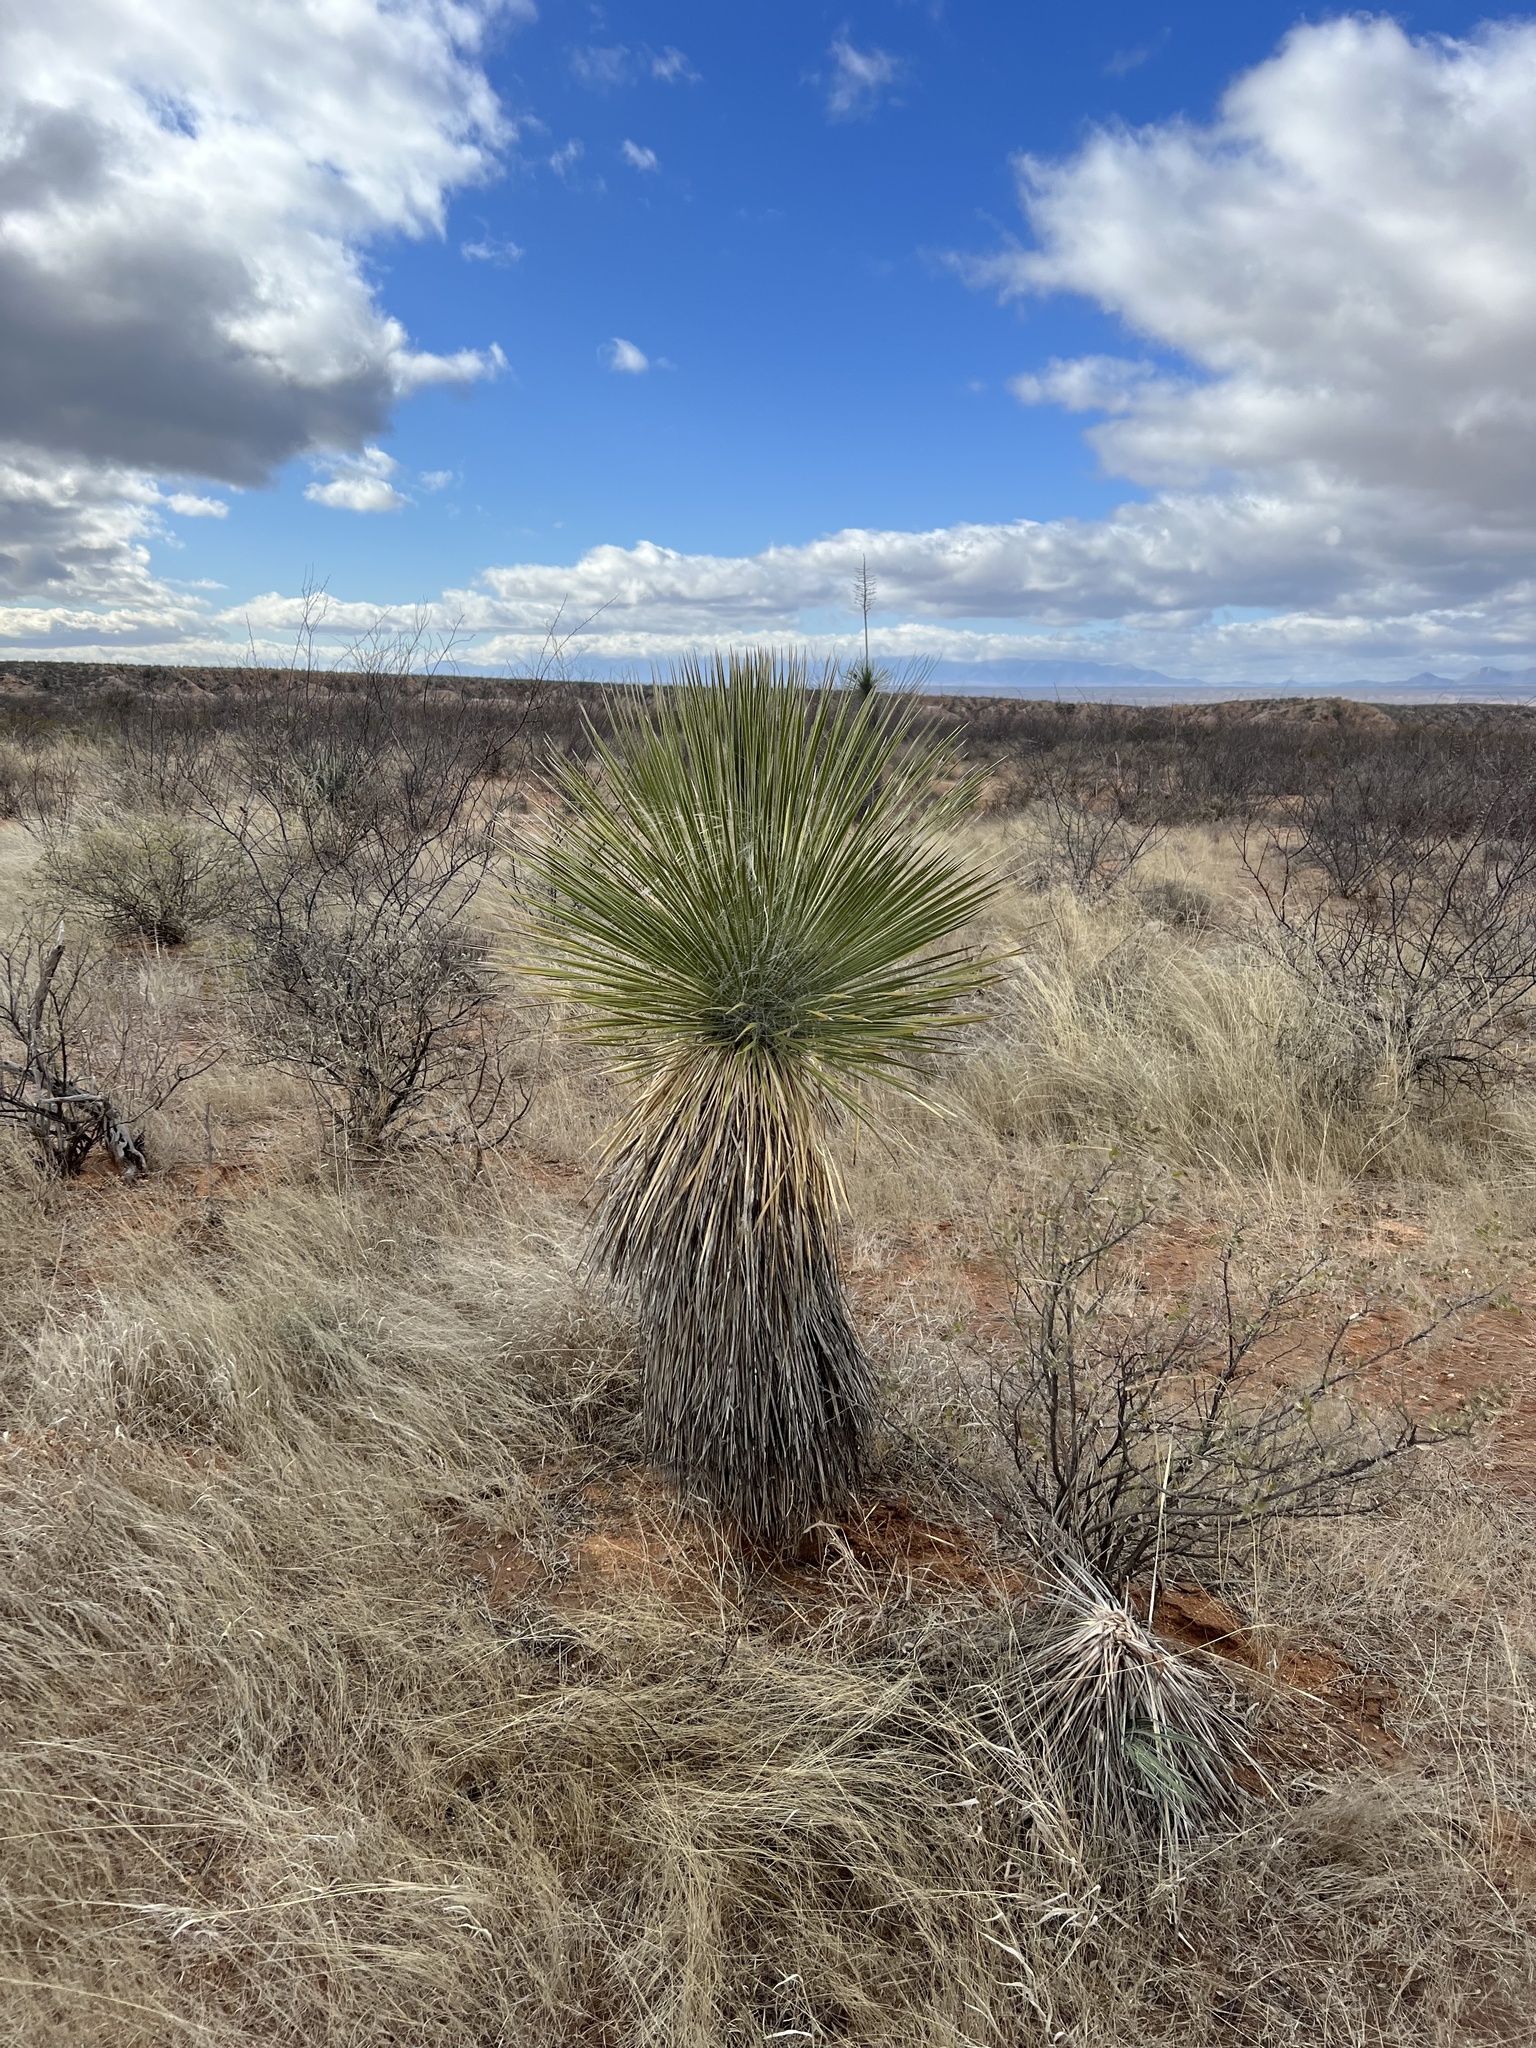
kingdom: Plantae
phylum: Tracheophyta
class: Liliopsida
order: Asparagales
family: Asparagaceae
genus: Yucca
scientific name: Yucca elata
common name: Palmella
